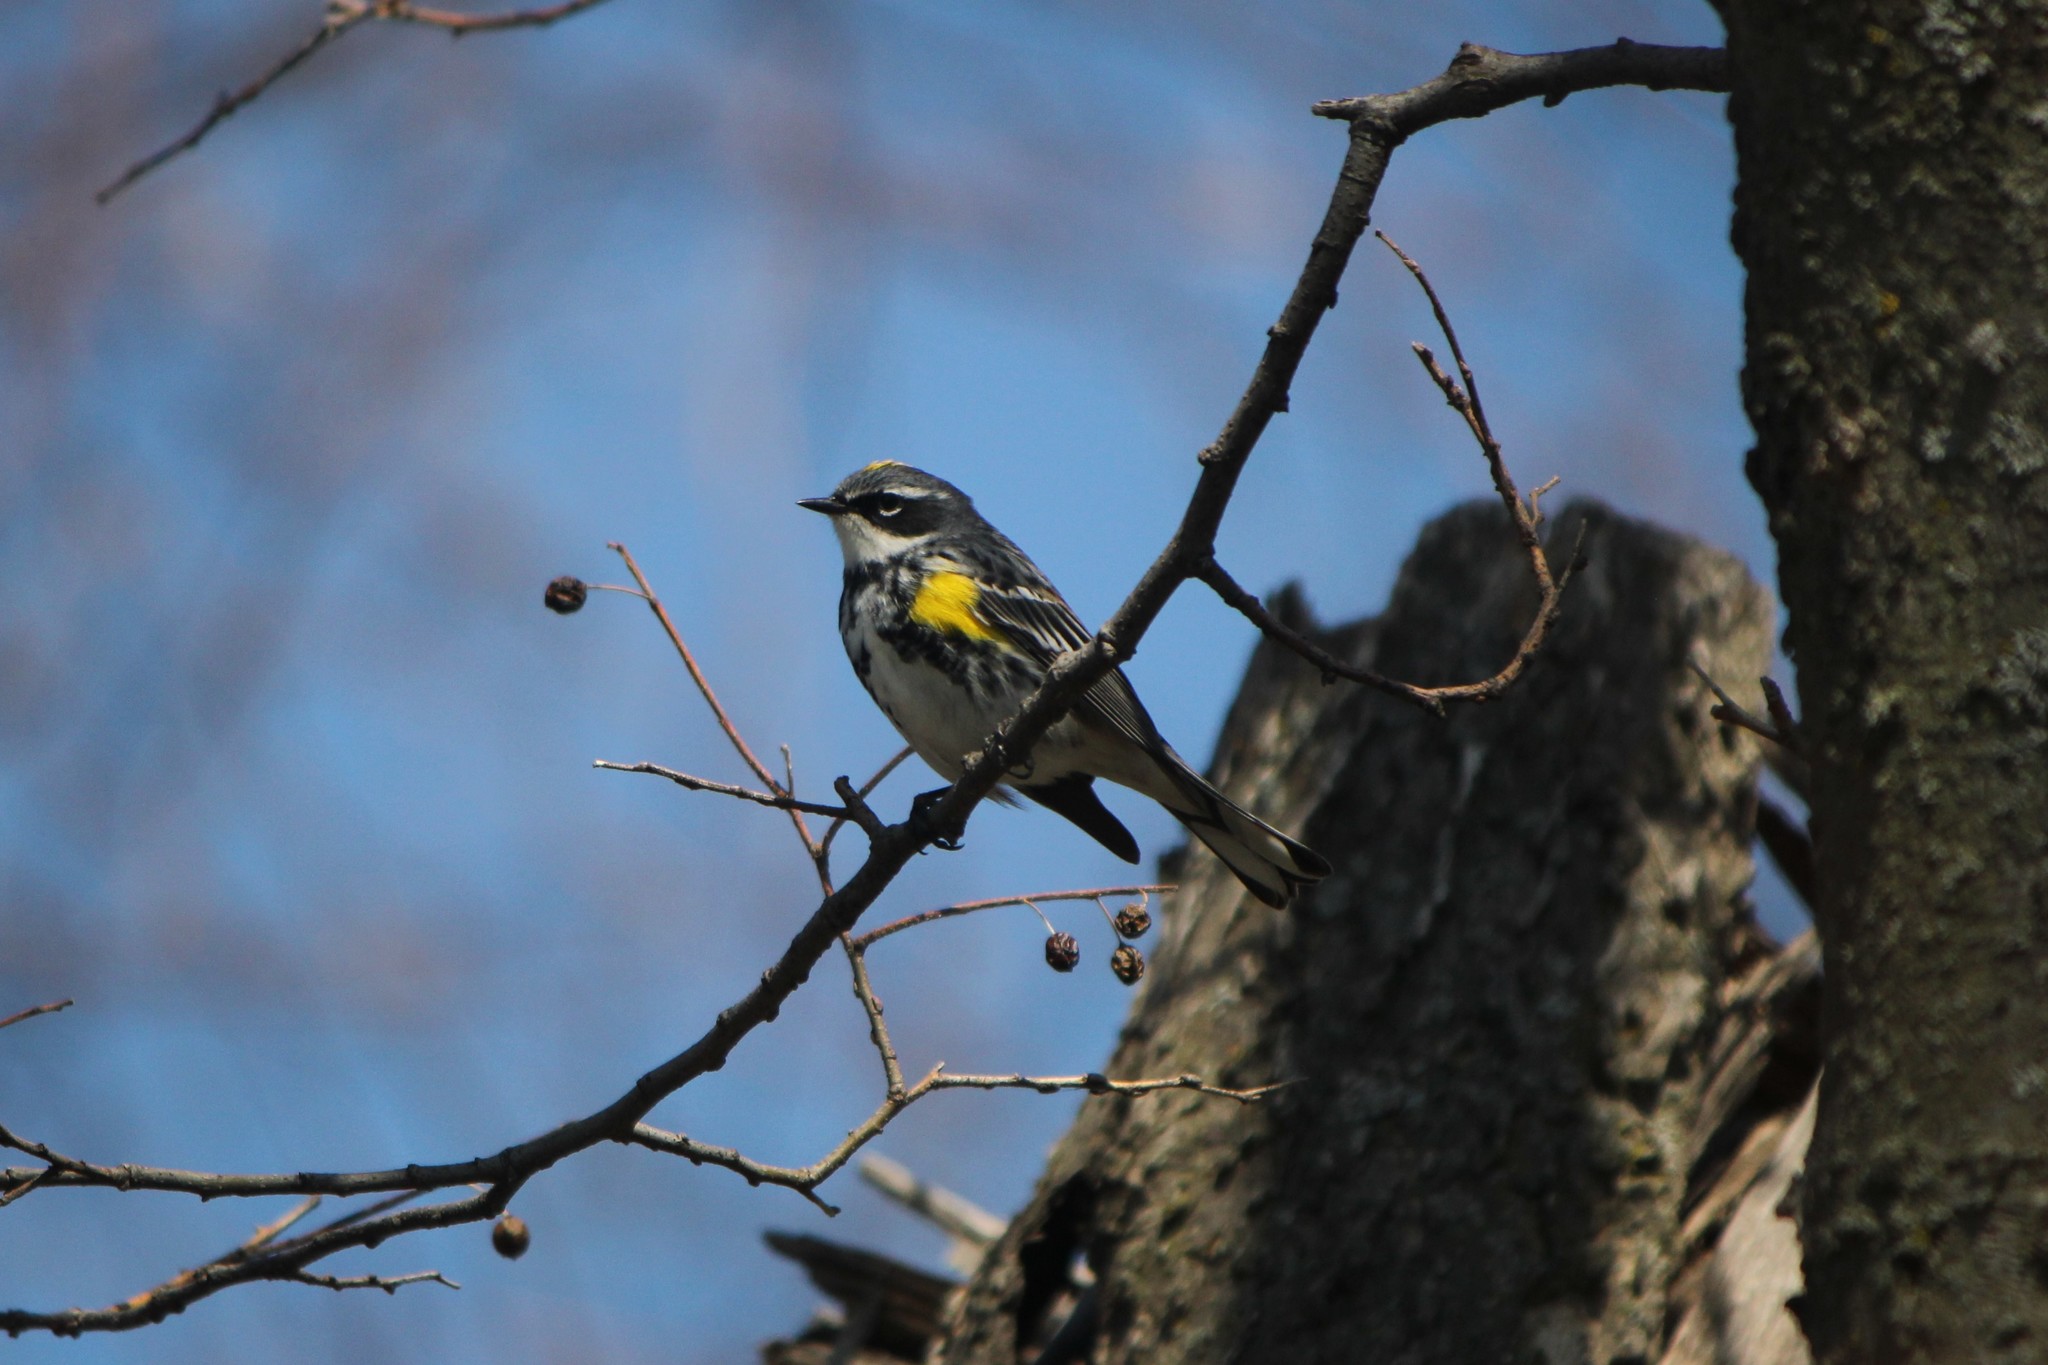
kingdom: Animalia
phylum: Chordata
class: Aves
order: Passeriformes
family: Parulidae
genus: Setophaga
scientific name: Setophaga coronata
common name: Myrtle warbler
